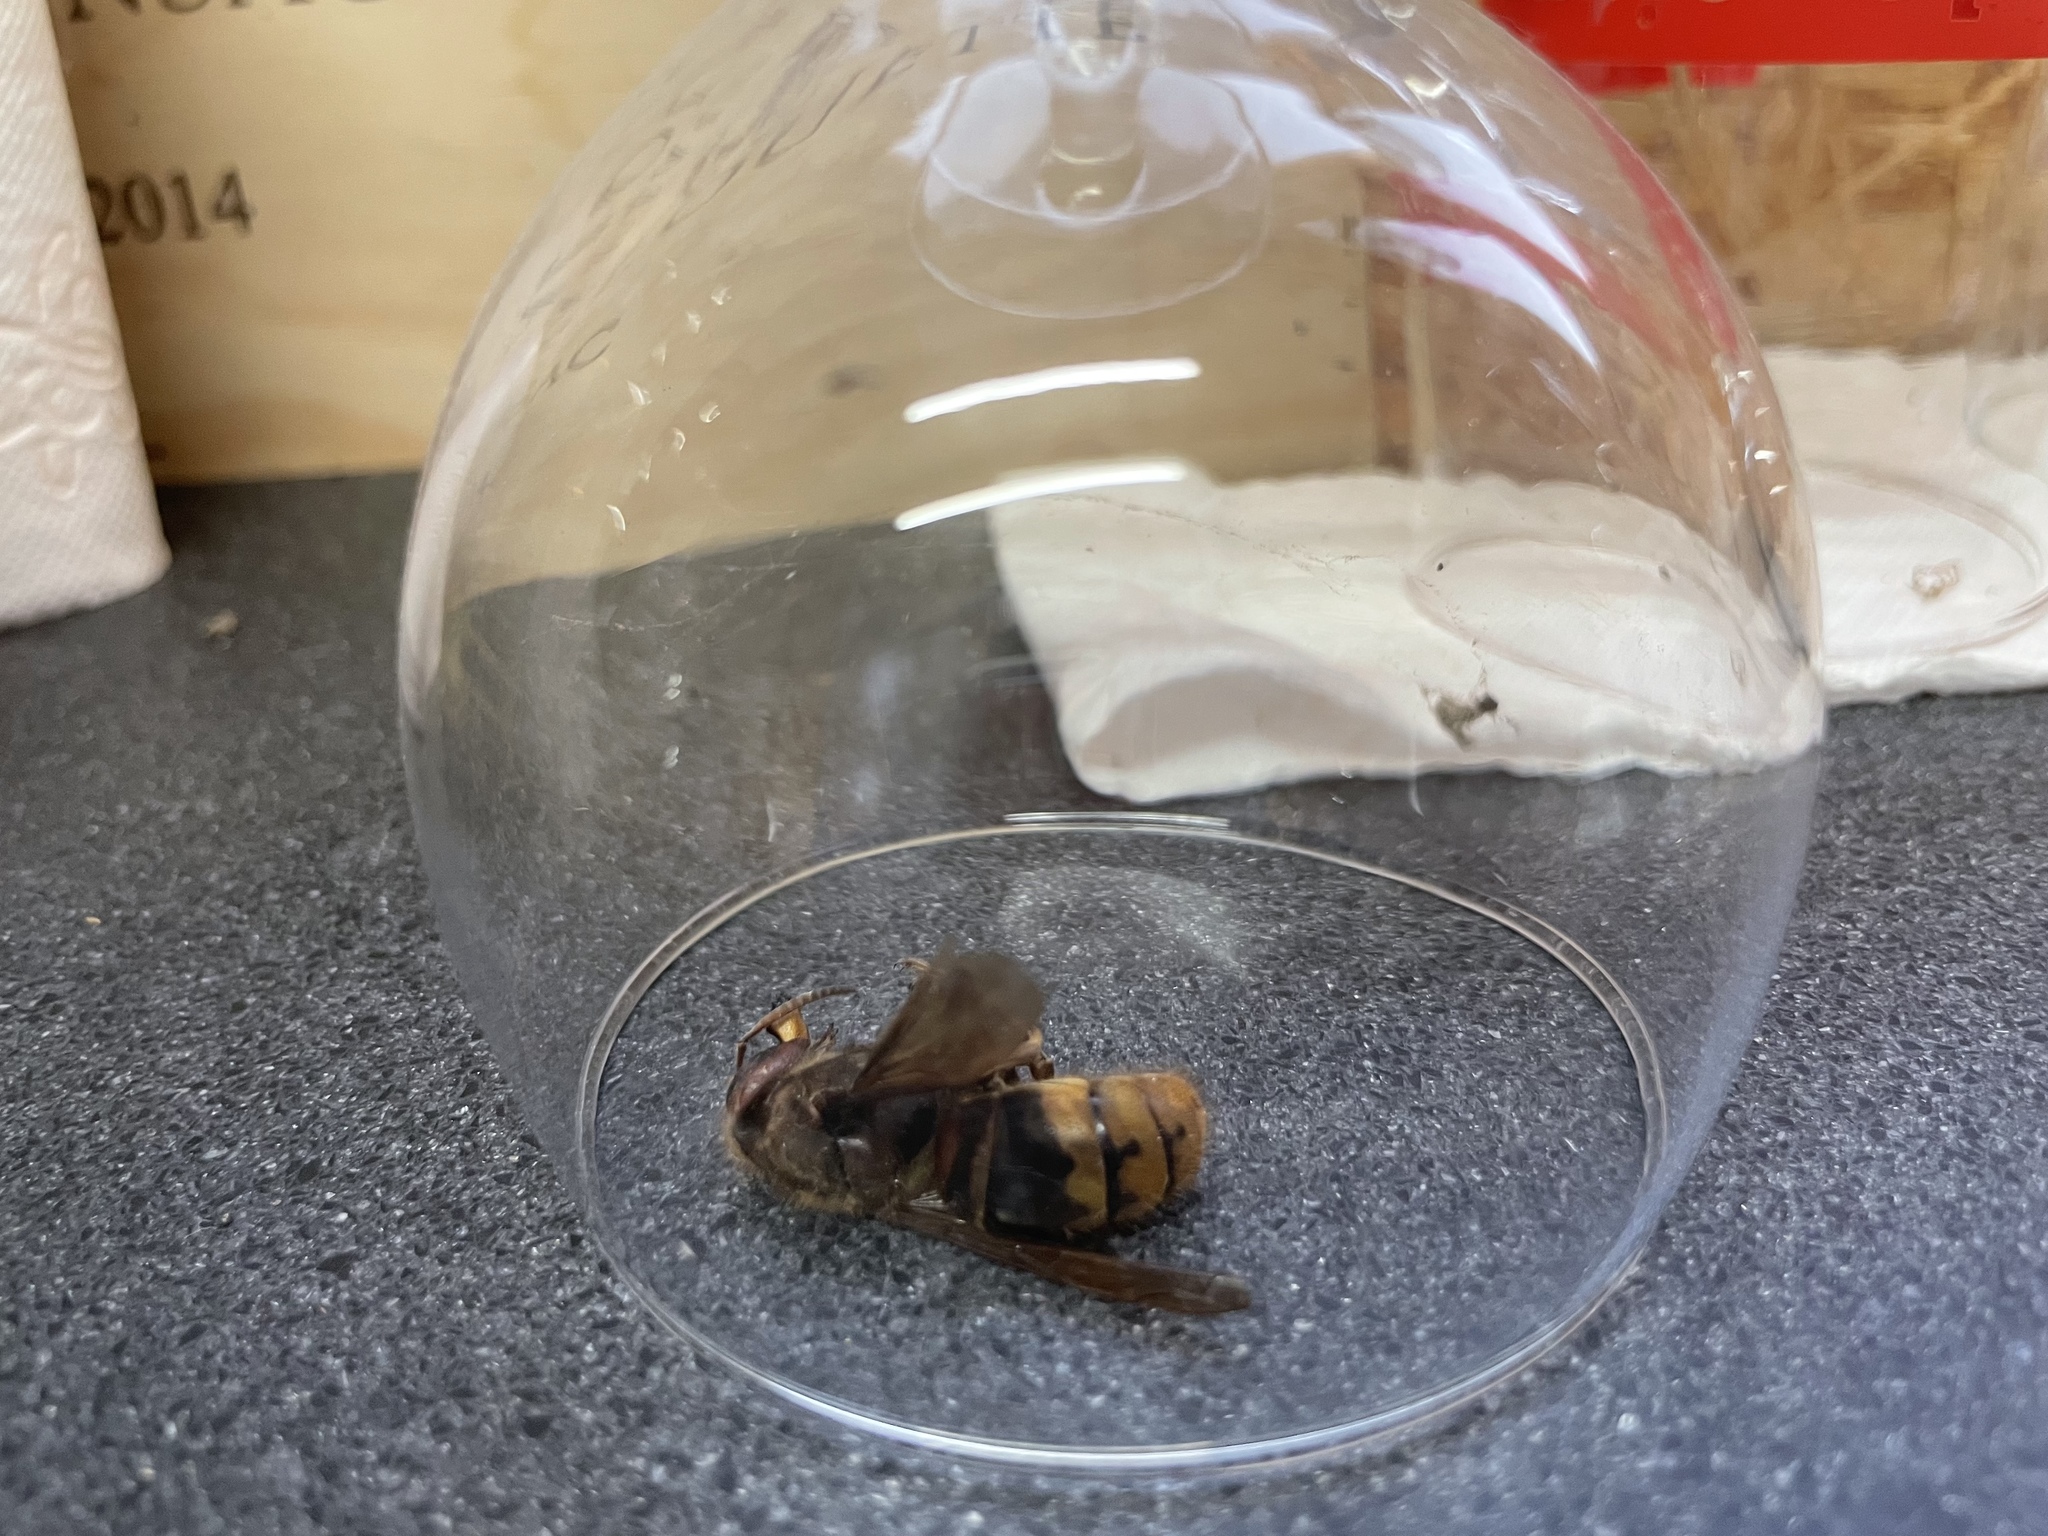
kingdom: Animalia
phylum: Arthropoda
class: Insecta
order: Hymenoptera
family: Vespidae
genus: Vespa
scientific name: Vespa crabro
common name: Hornet
